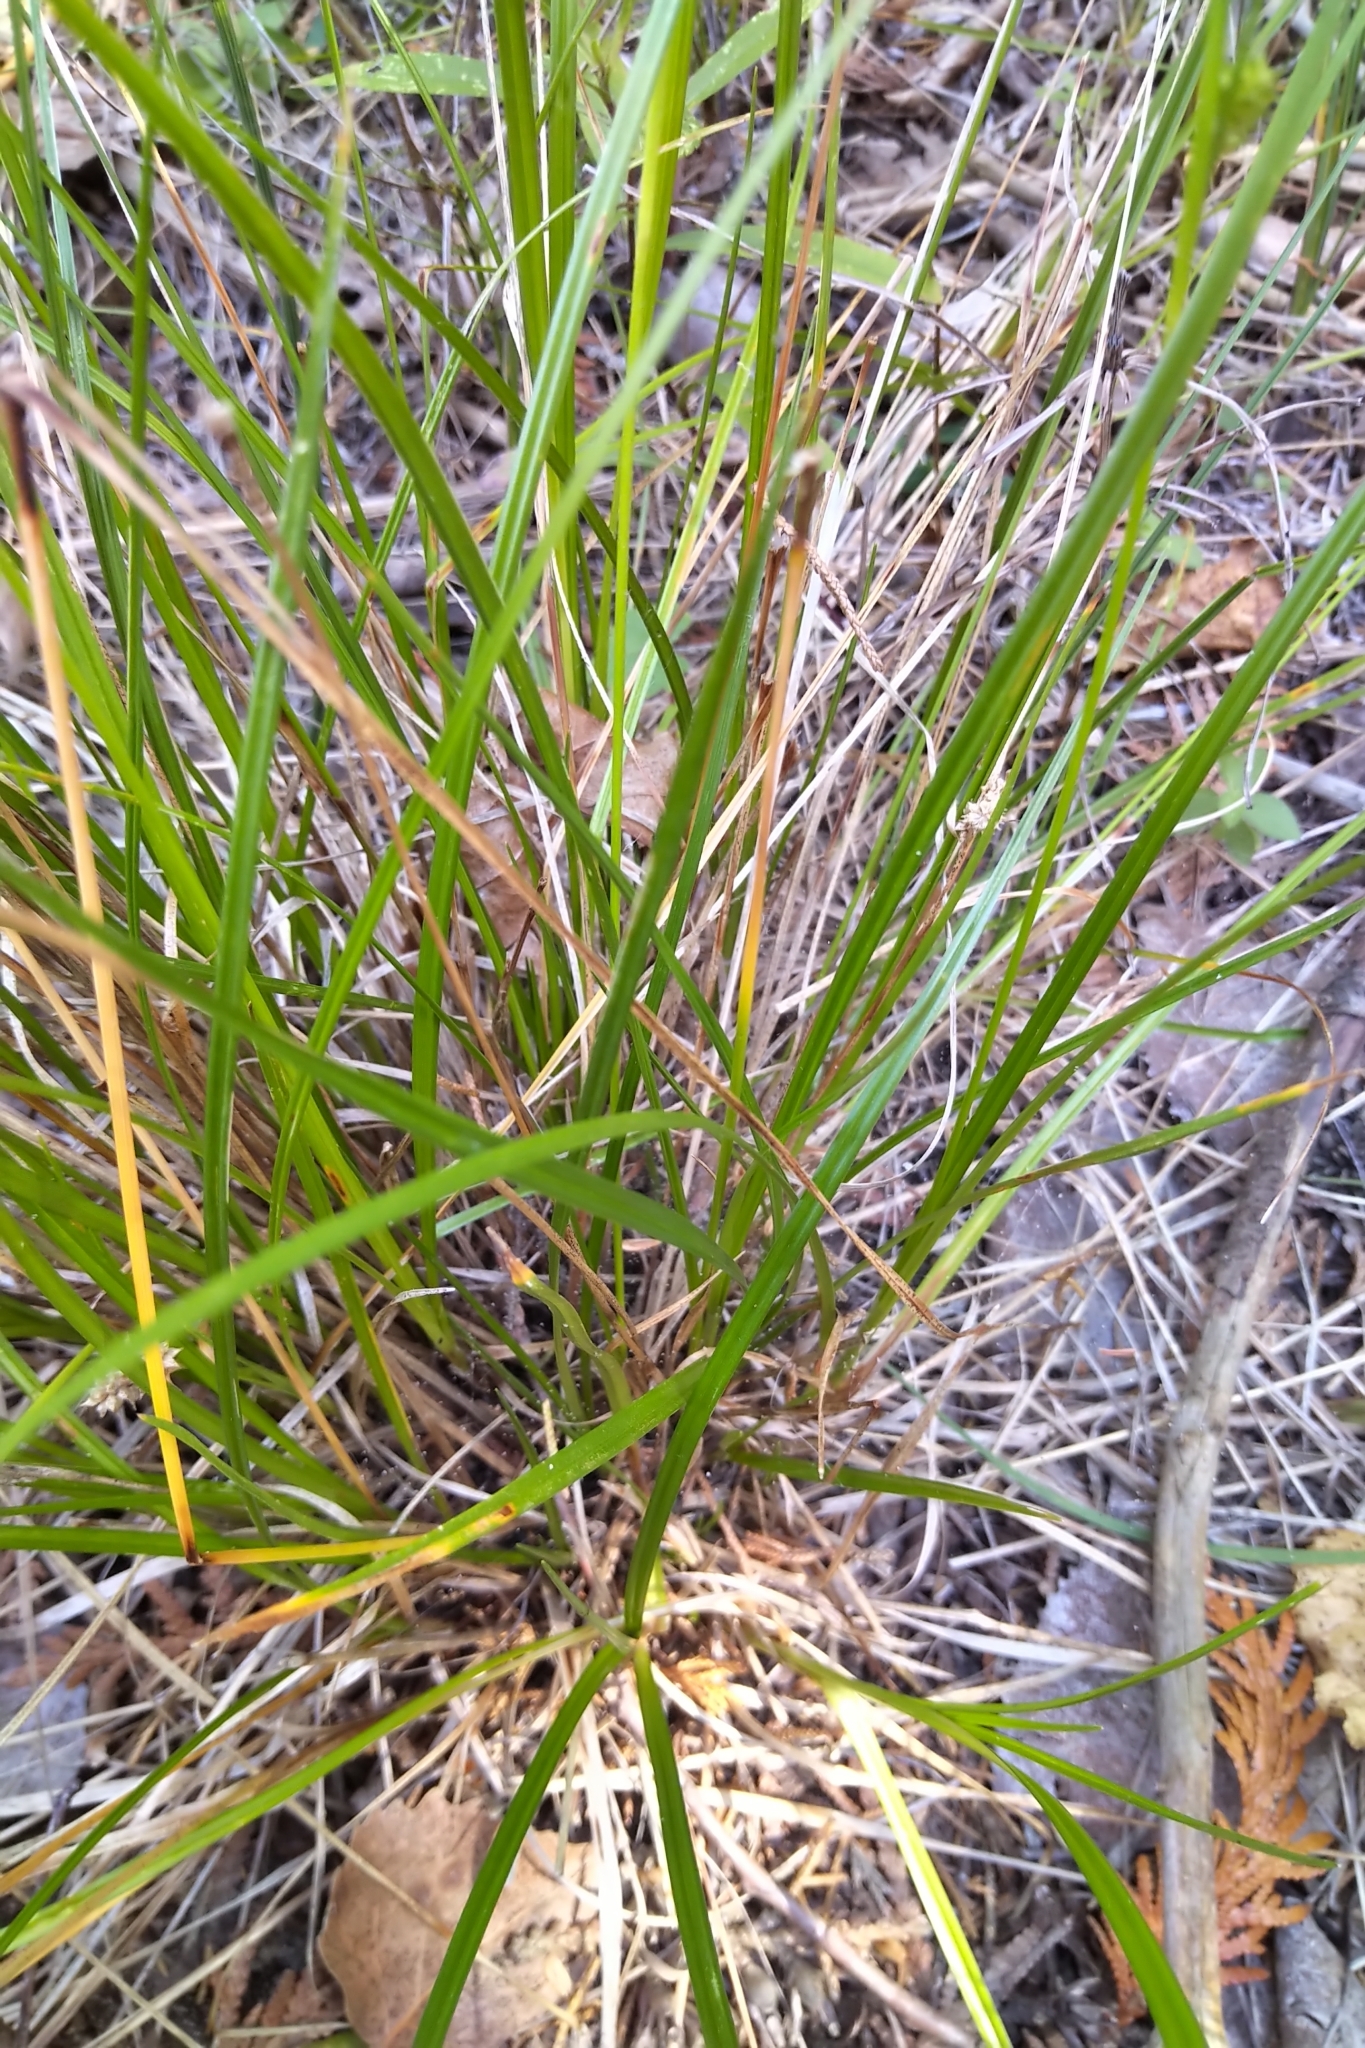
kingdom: Plantae
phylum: Tracheophyta
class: Liliopsida
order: Poales
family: Cyperaceae
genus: Carex
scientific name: Carex
